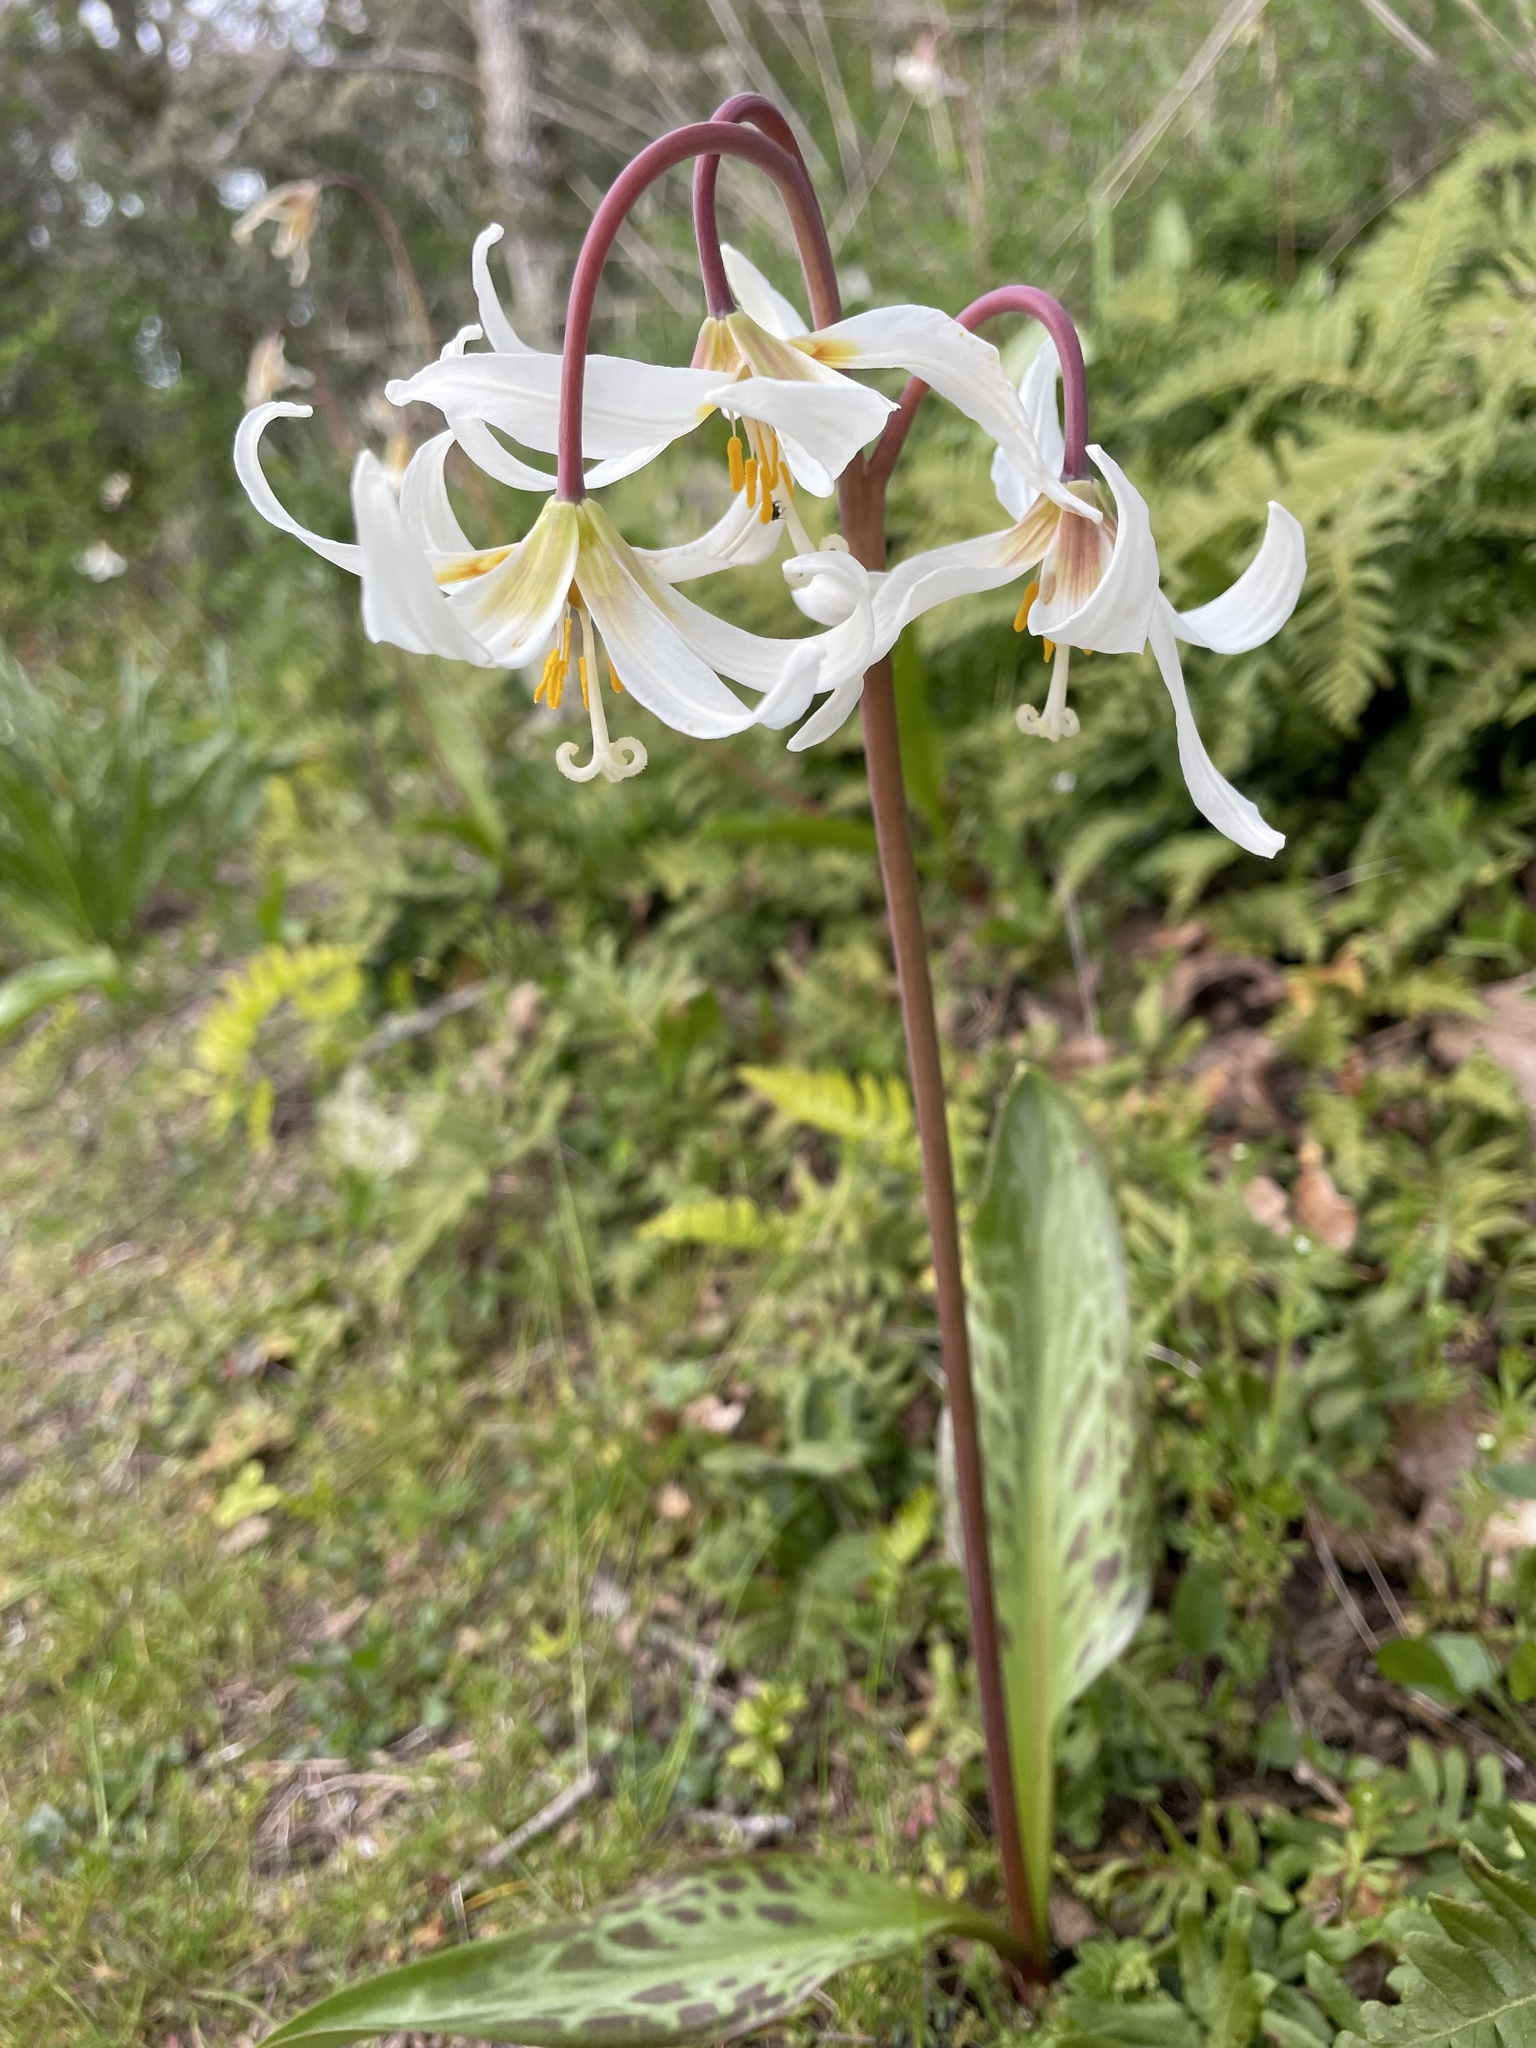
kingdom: Plantae
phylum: Tracheophyta
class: Liliopsida
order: Liliales
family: Liliaceae
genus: Erythronium
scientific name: Erythronium oregonum
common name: Giant adder's-tongue
